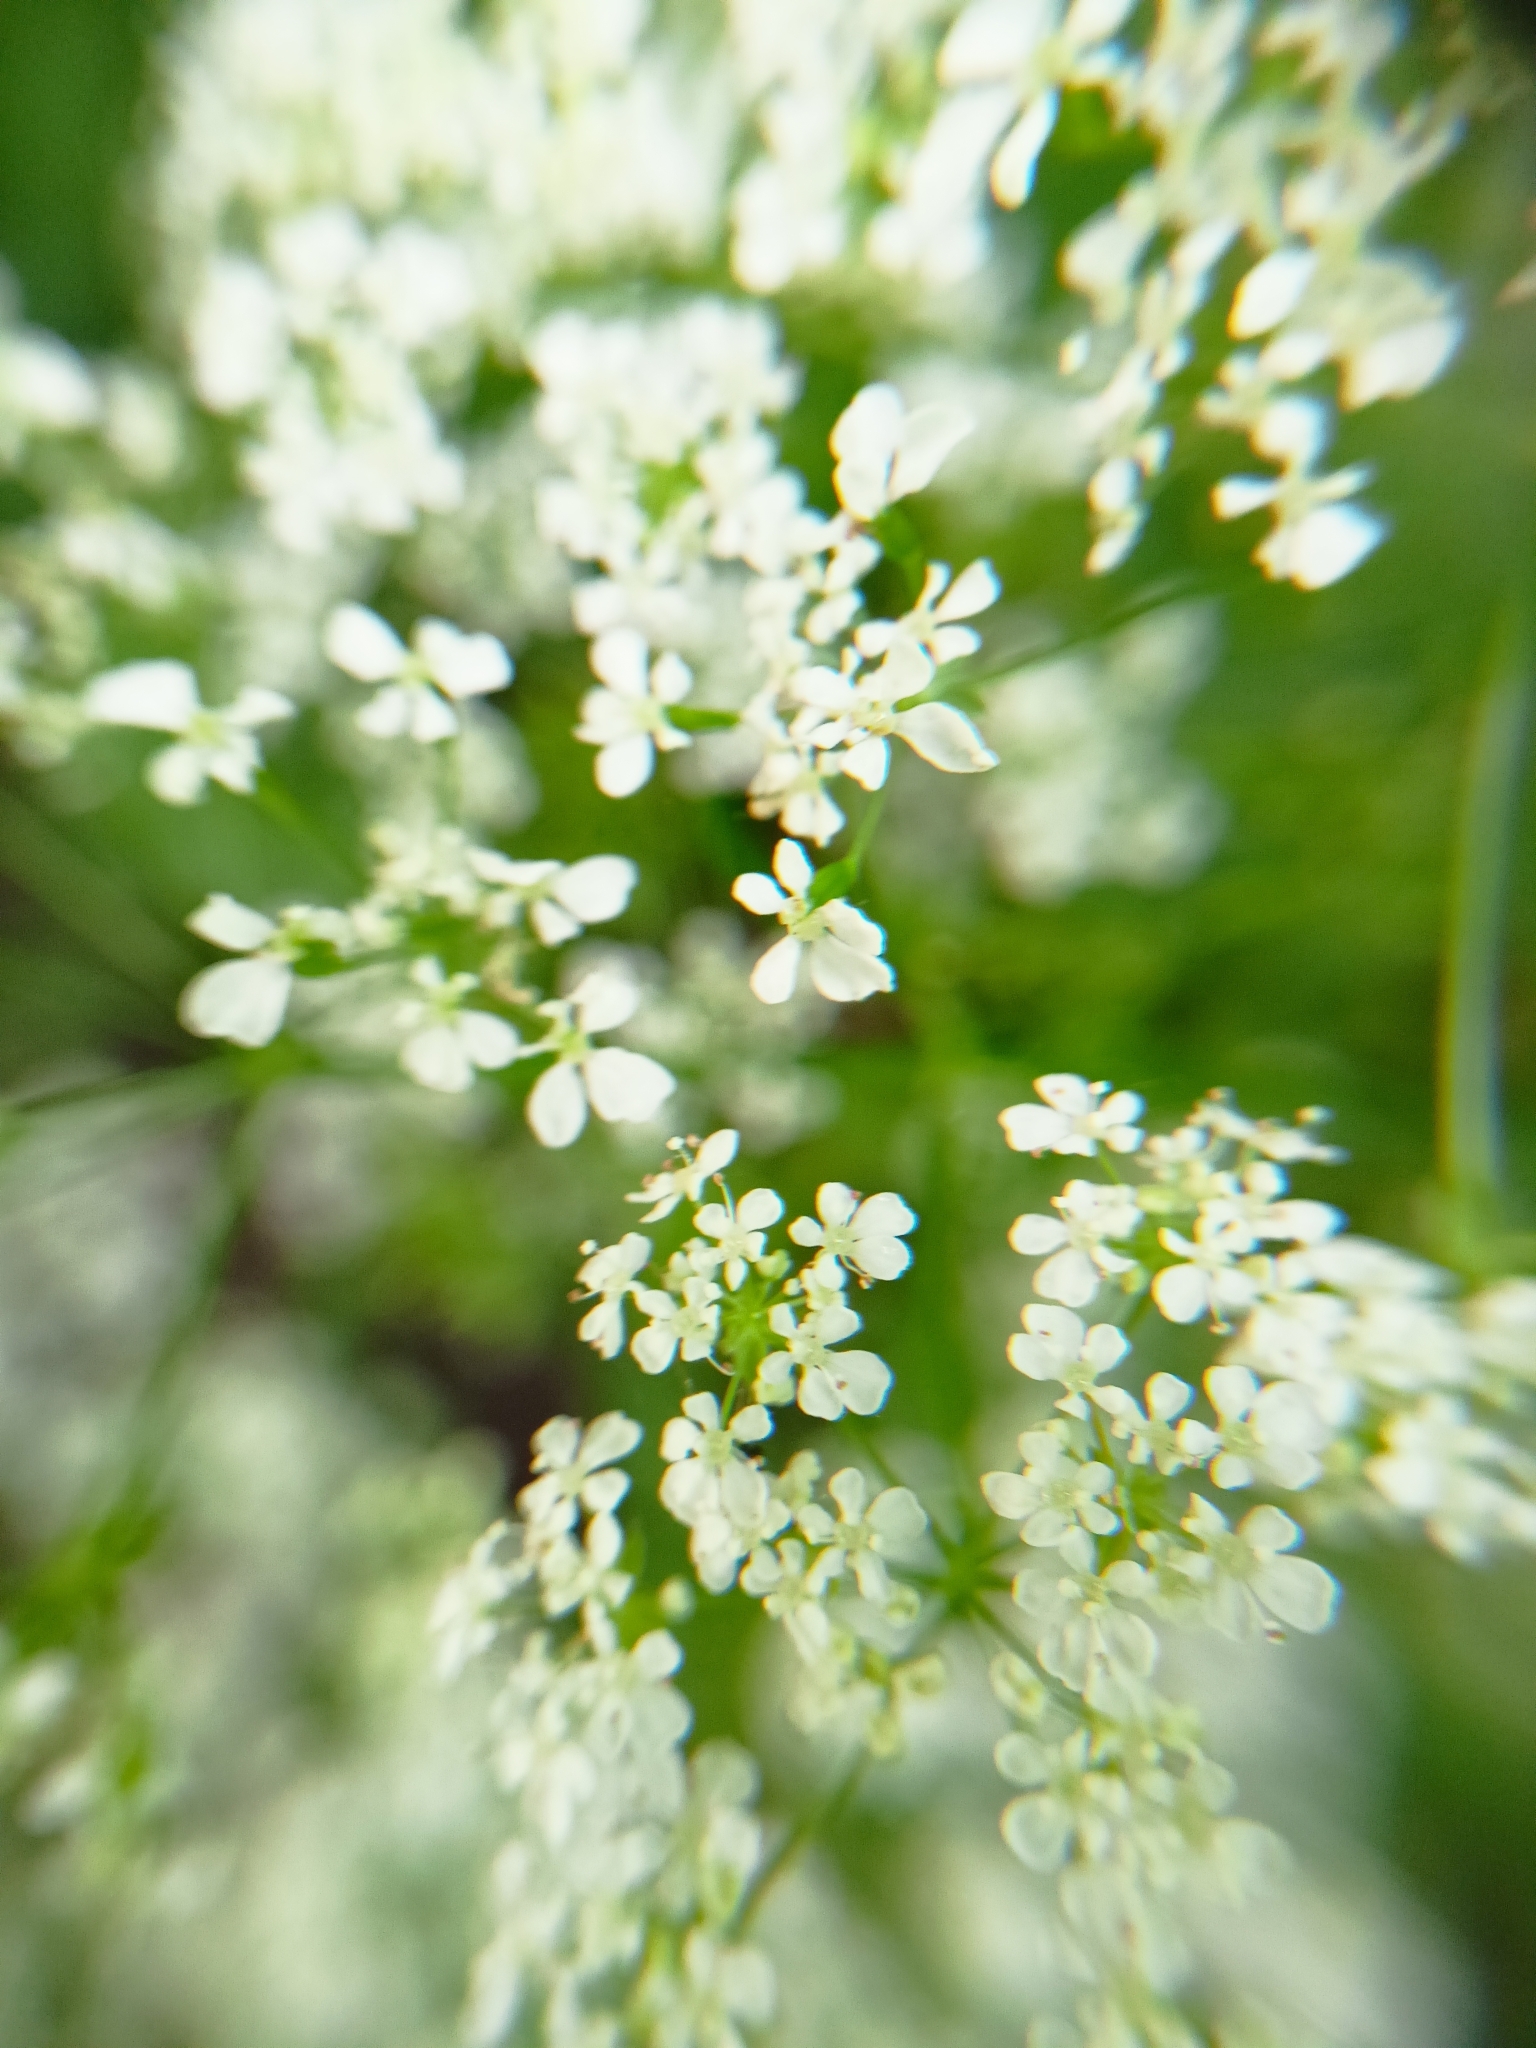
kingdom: Plantae
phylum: Tracheophyta
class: Magnoliopsida
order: Apiales
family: Apiaceae
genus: Anthriscus
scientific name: Anthriscus sylvestris
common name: Cow parsley
